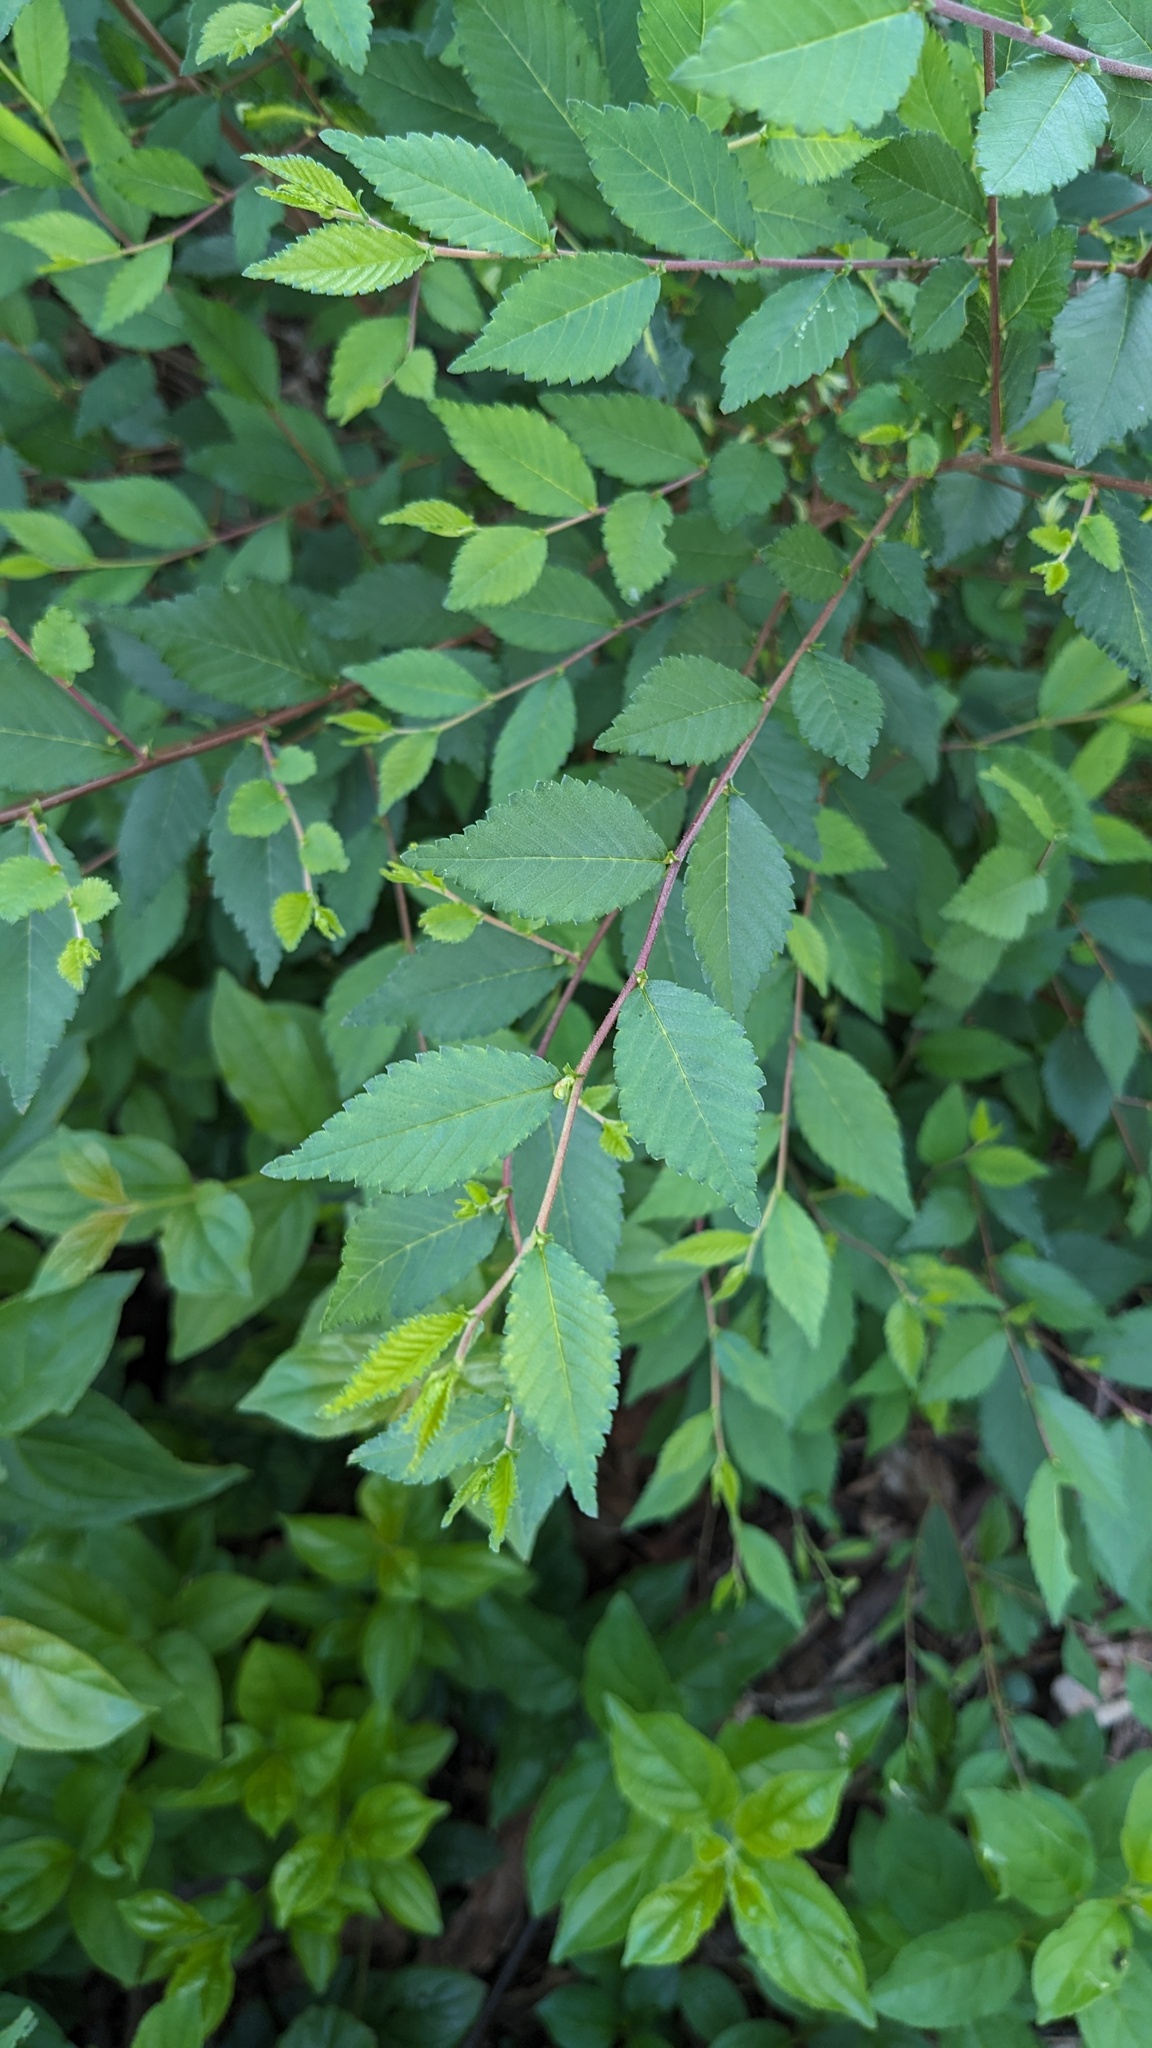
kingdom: Plantae
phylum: Tracheophyta
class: Magnoliopsida
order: Rosales
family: Ulmaceae
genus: Ulmus
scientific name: Ulmus pumila
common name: Siberian elm
